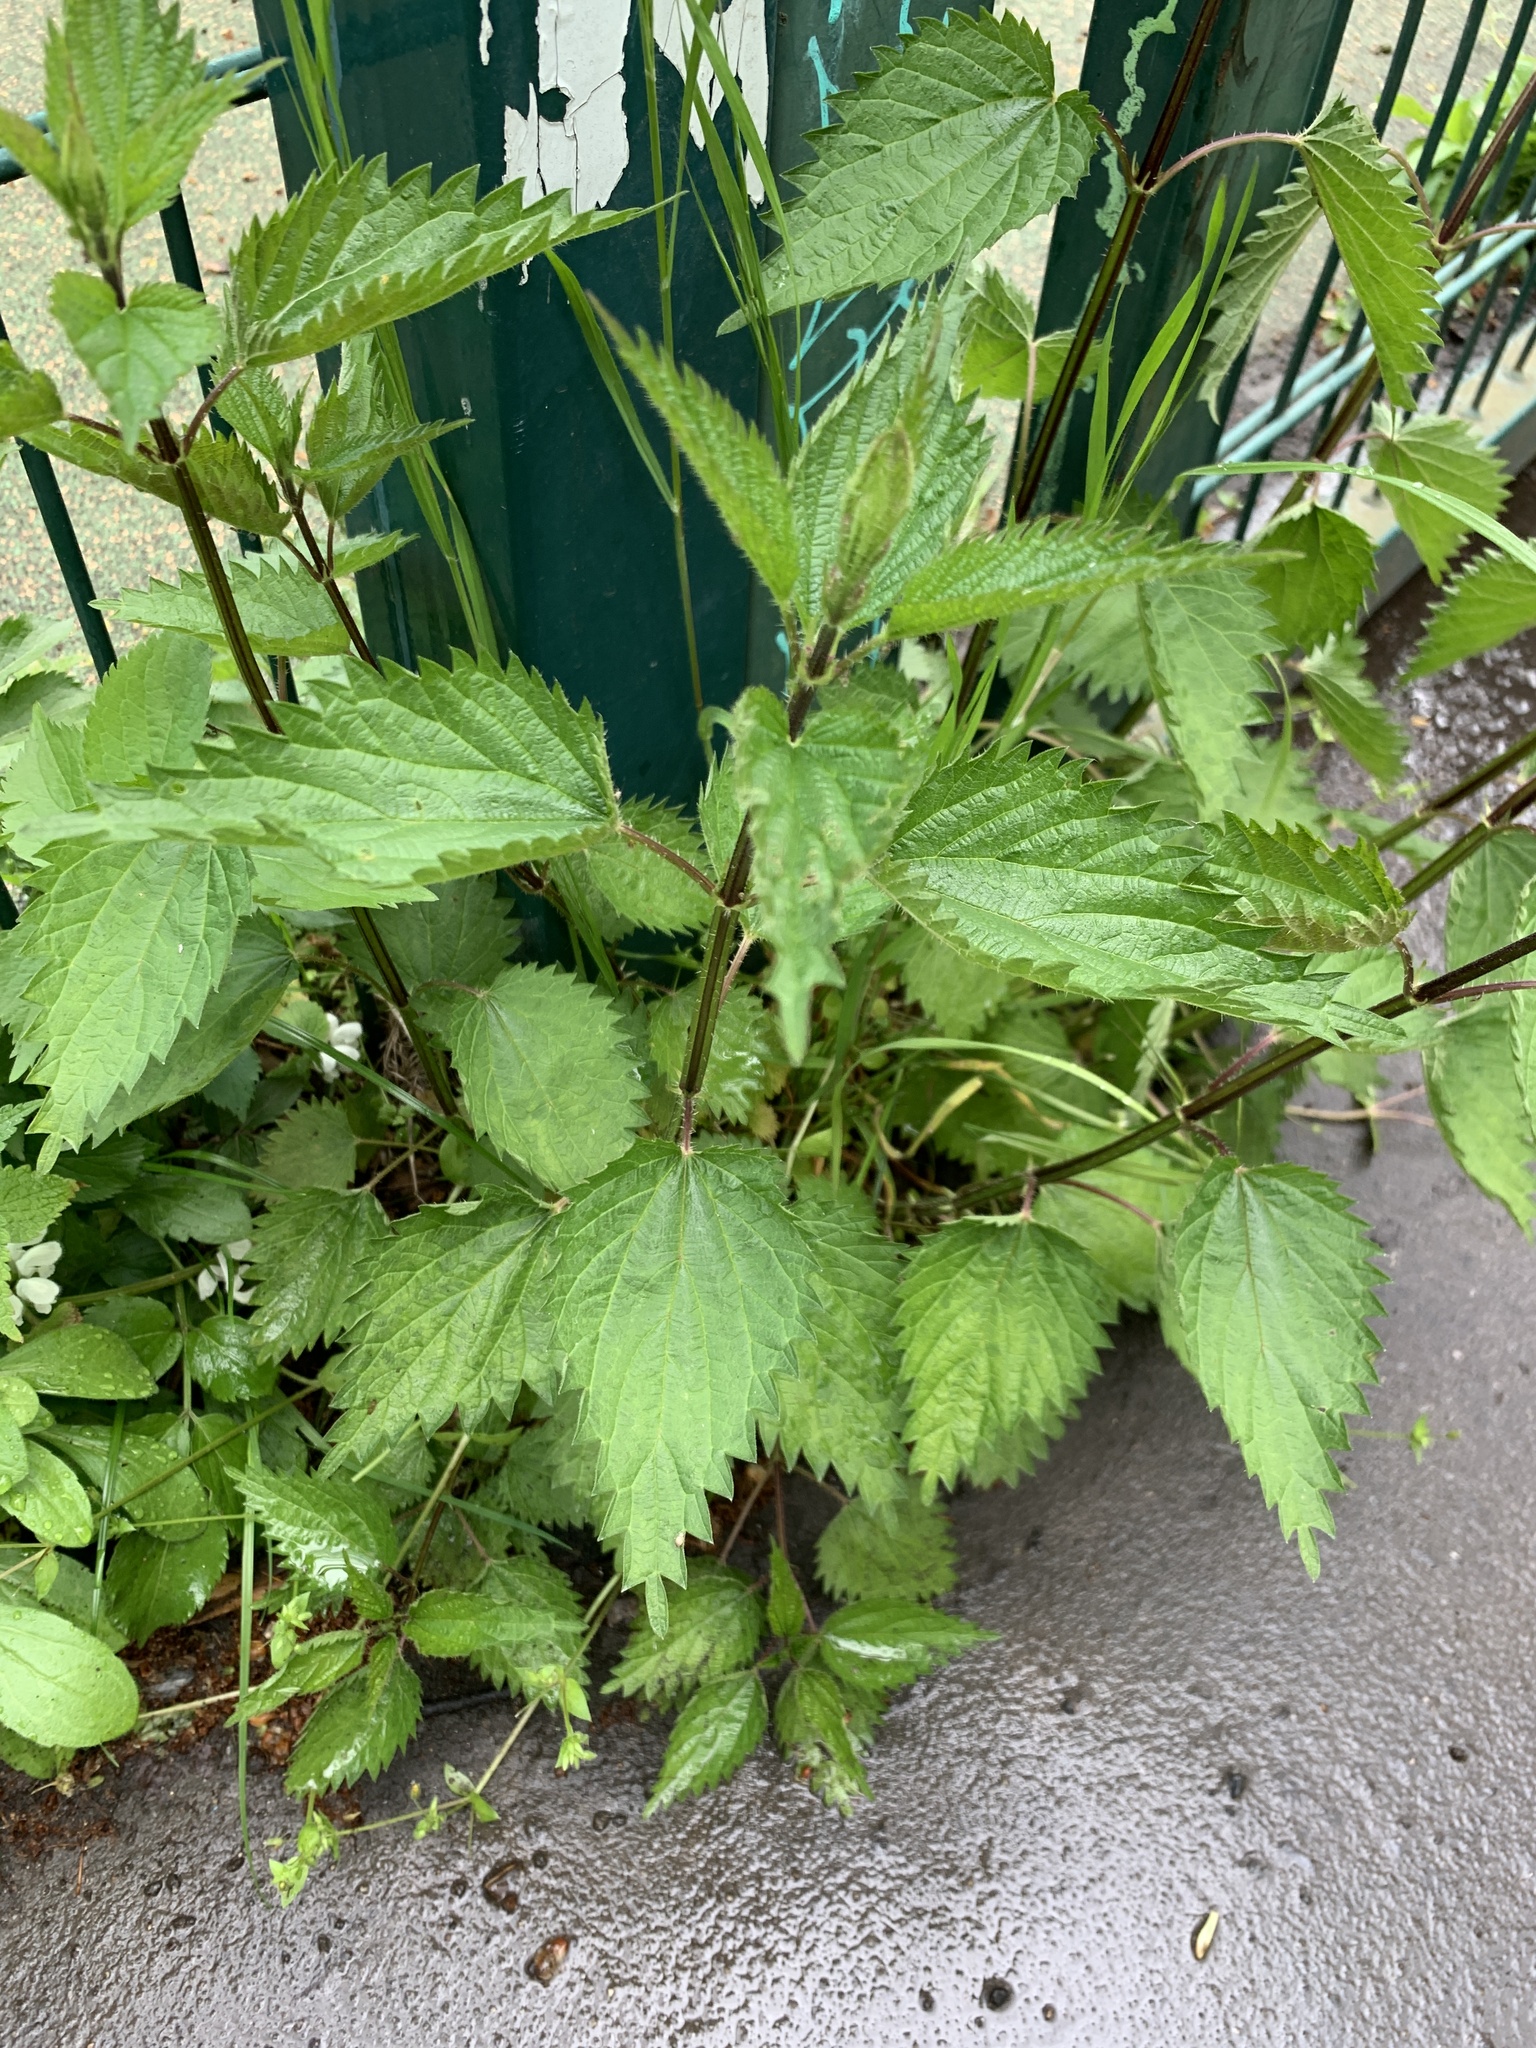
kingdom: Plantae
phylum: Tracheophyta
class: Magnoliopsida
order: Rosales
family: Urticaceae
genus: Urtica
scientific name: Urtica dioica
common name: Common nettle
